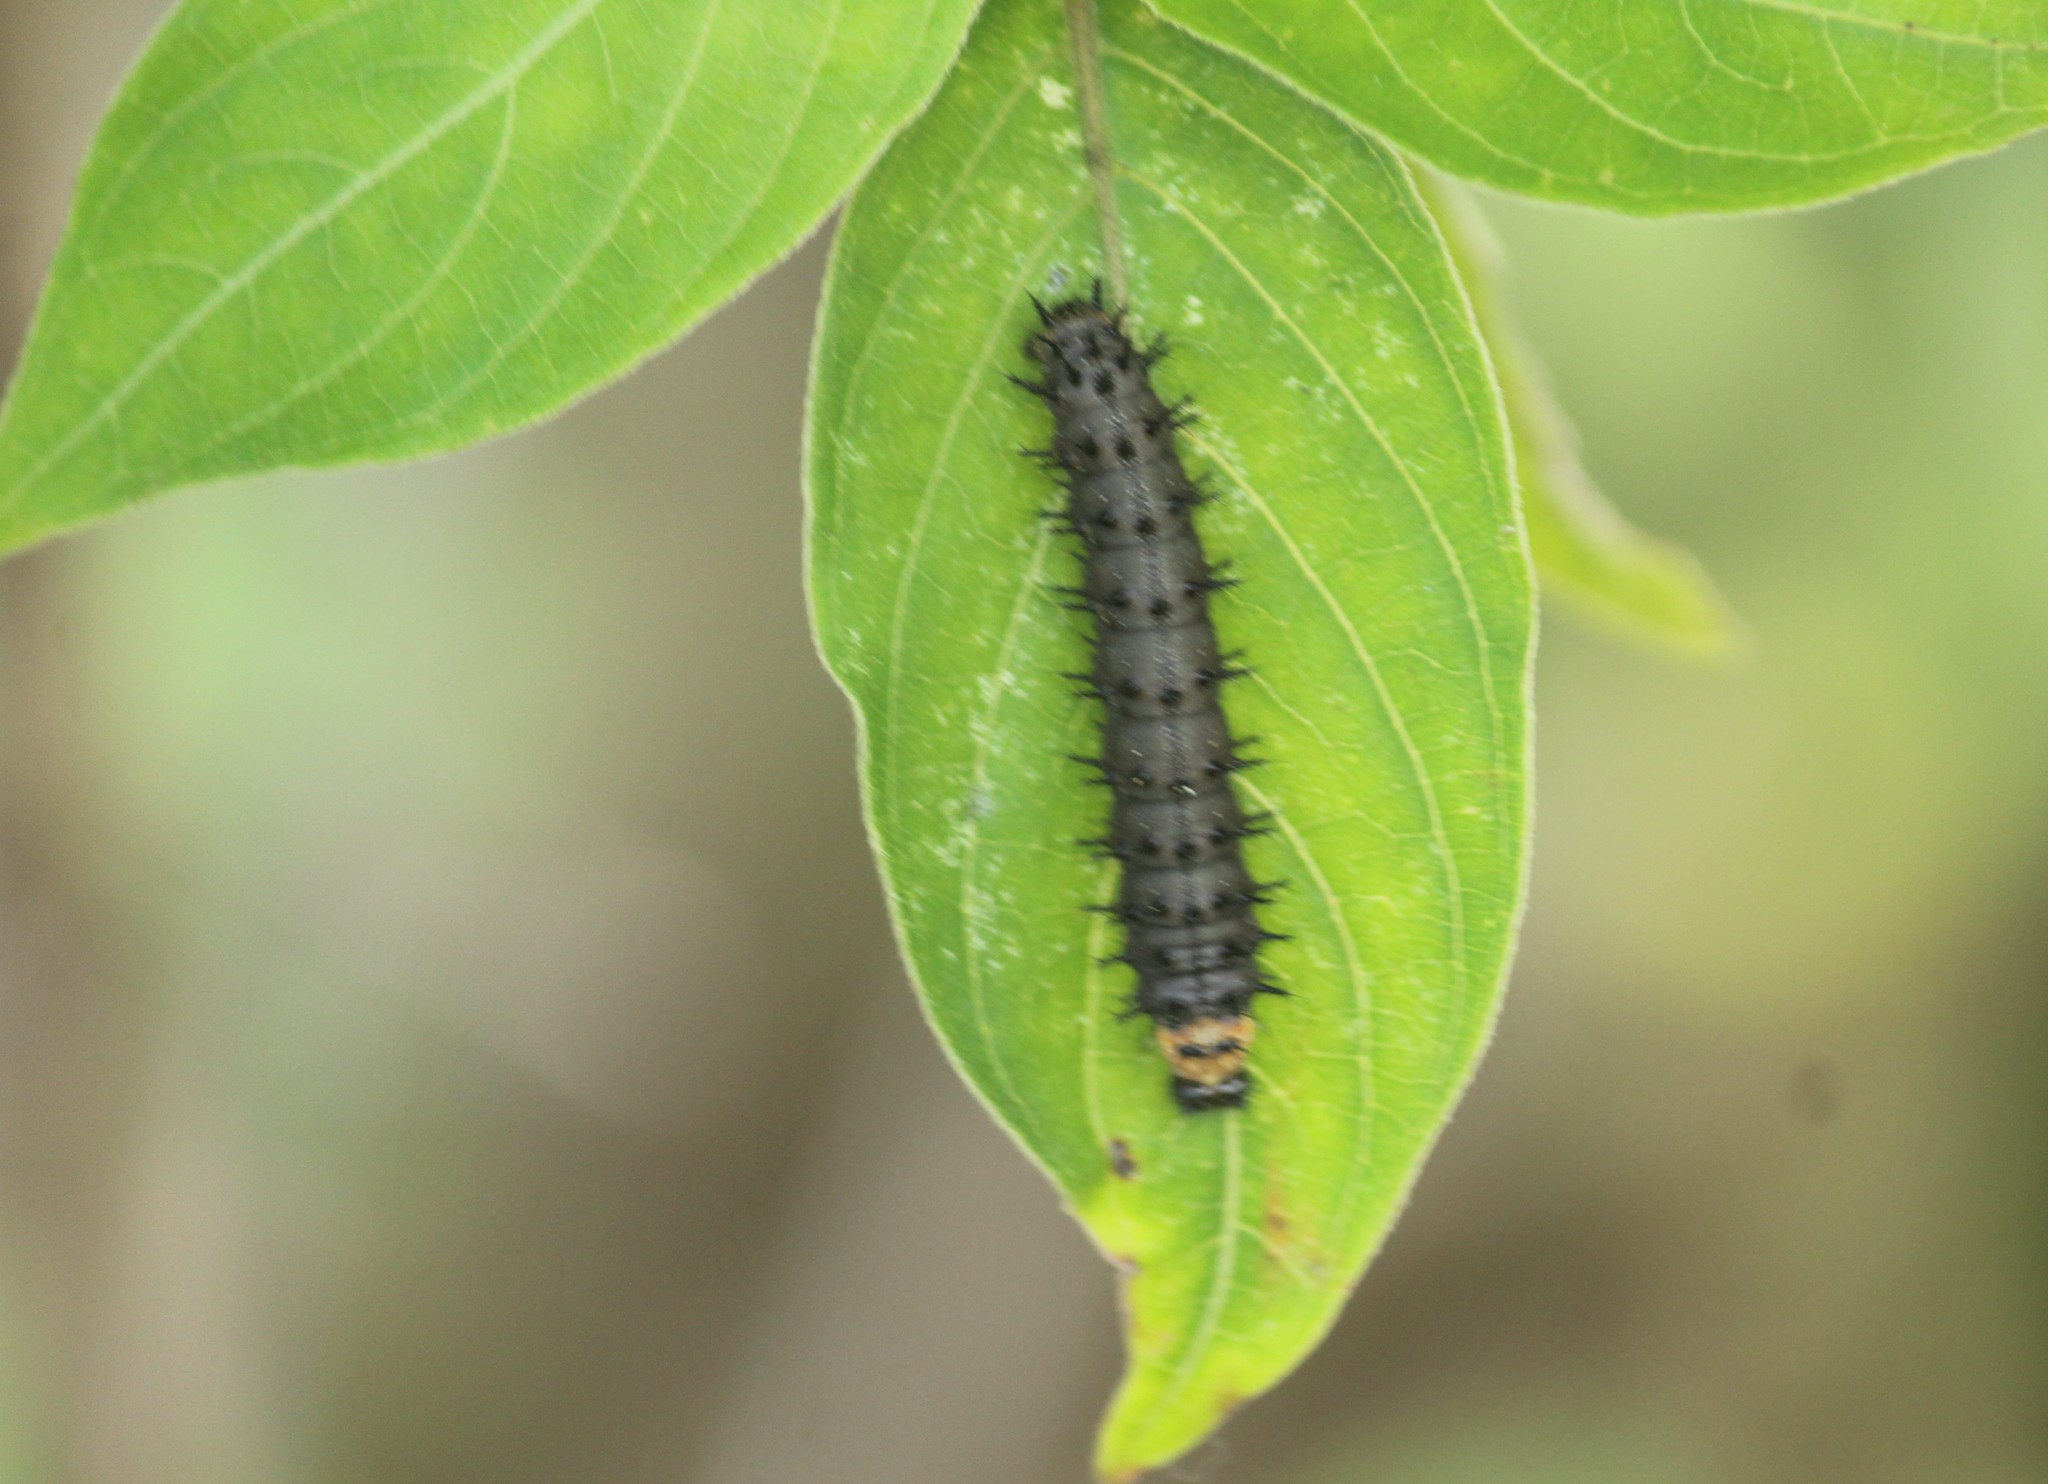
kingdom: Animalia
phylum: Arthropoda
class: Insecta
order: Lepidoptera
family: Nymphalidae
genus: Junonia
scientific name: Junonia lemonias
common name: Lemon pansy
